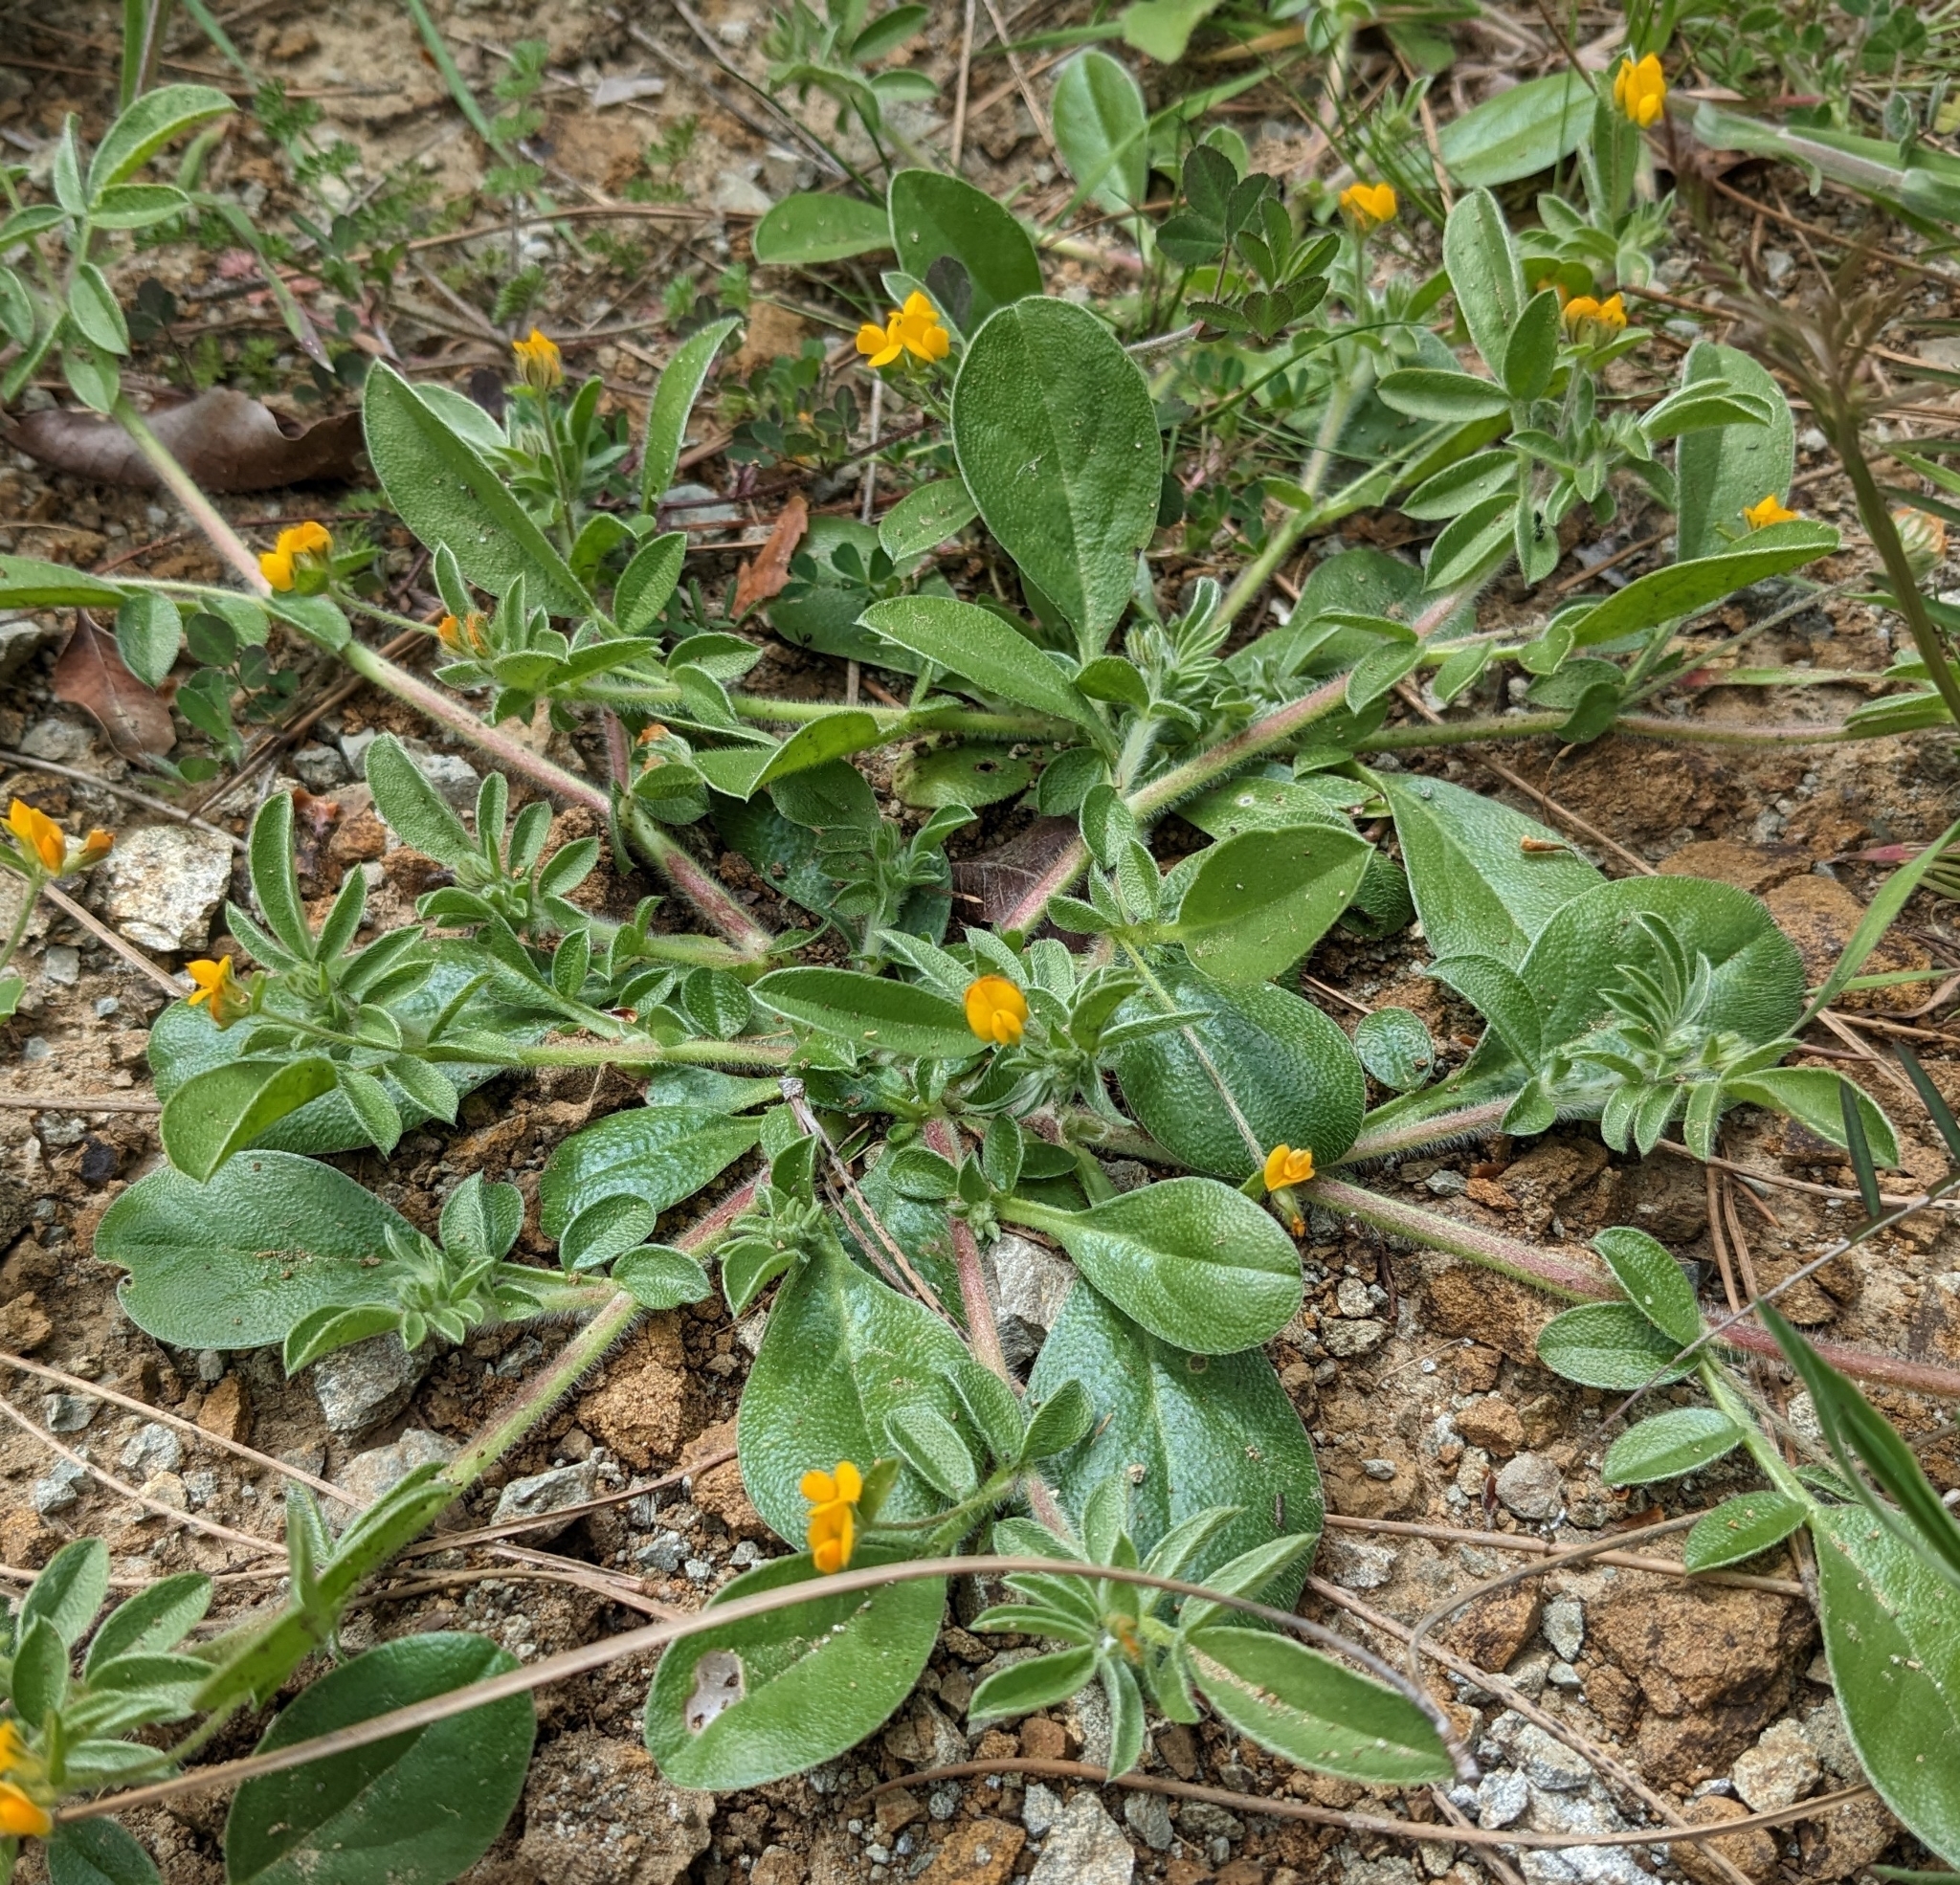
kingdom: Plantae
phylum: Tracheophyta
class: Magnoliopsida
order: Fabales
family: Fabaceae
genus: Anthyllis
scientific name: Anthyllis circinnata
